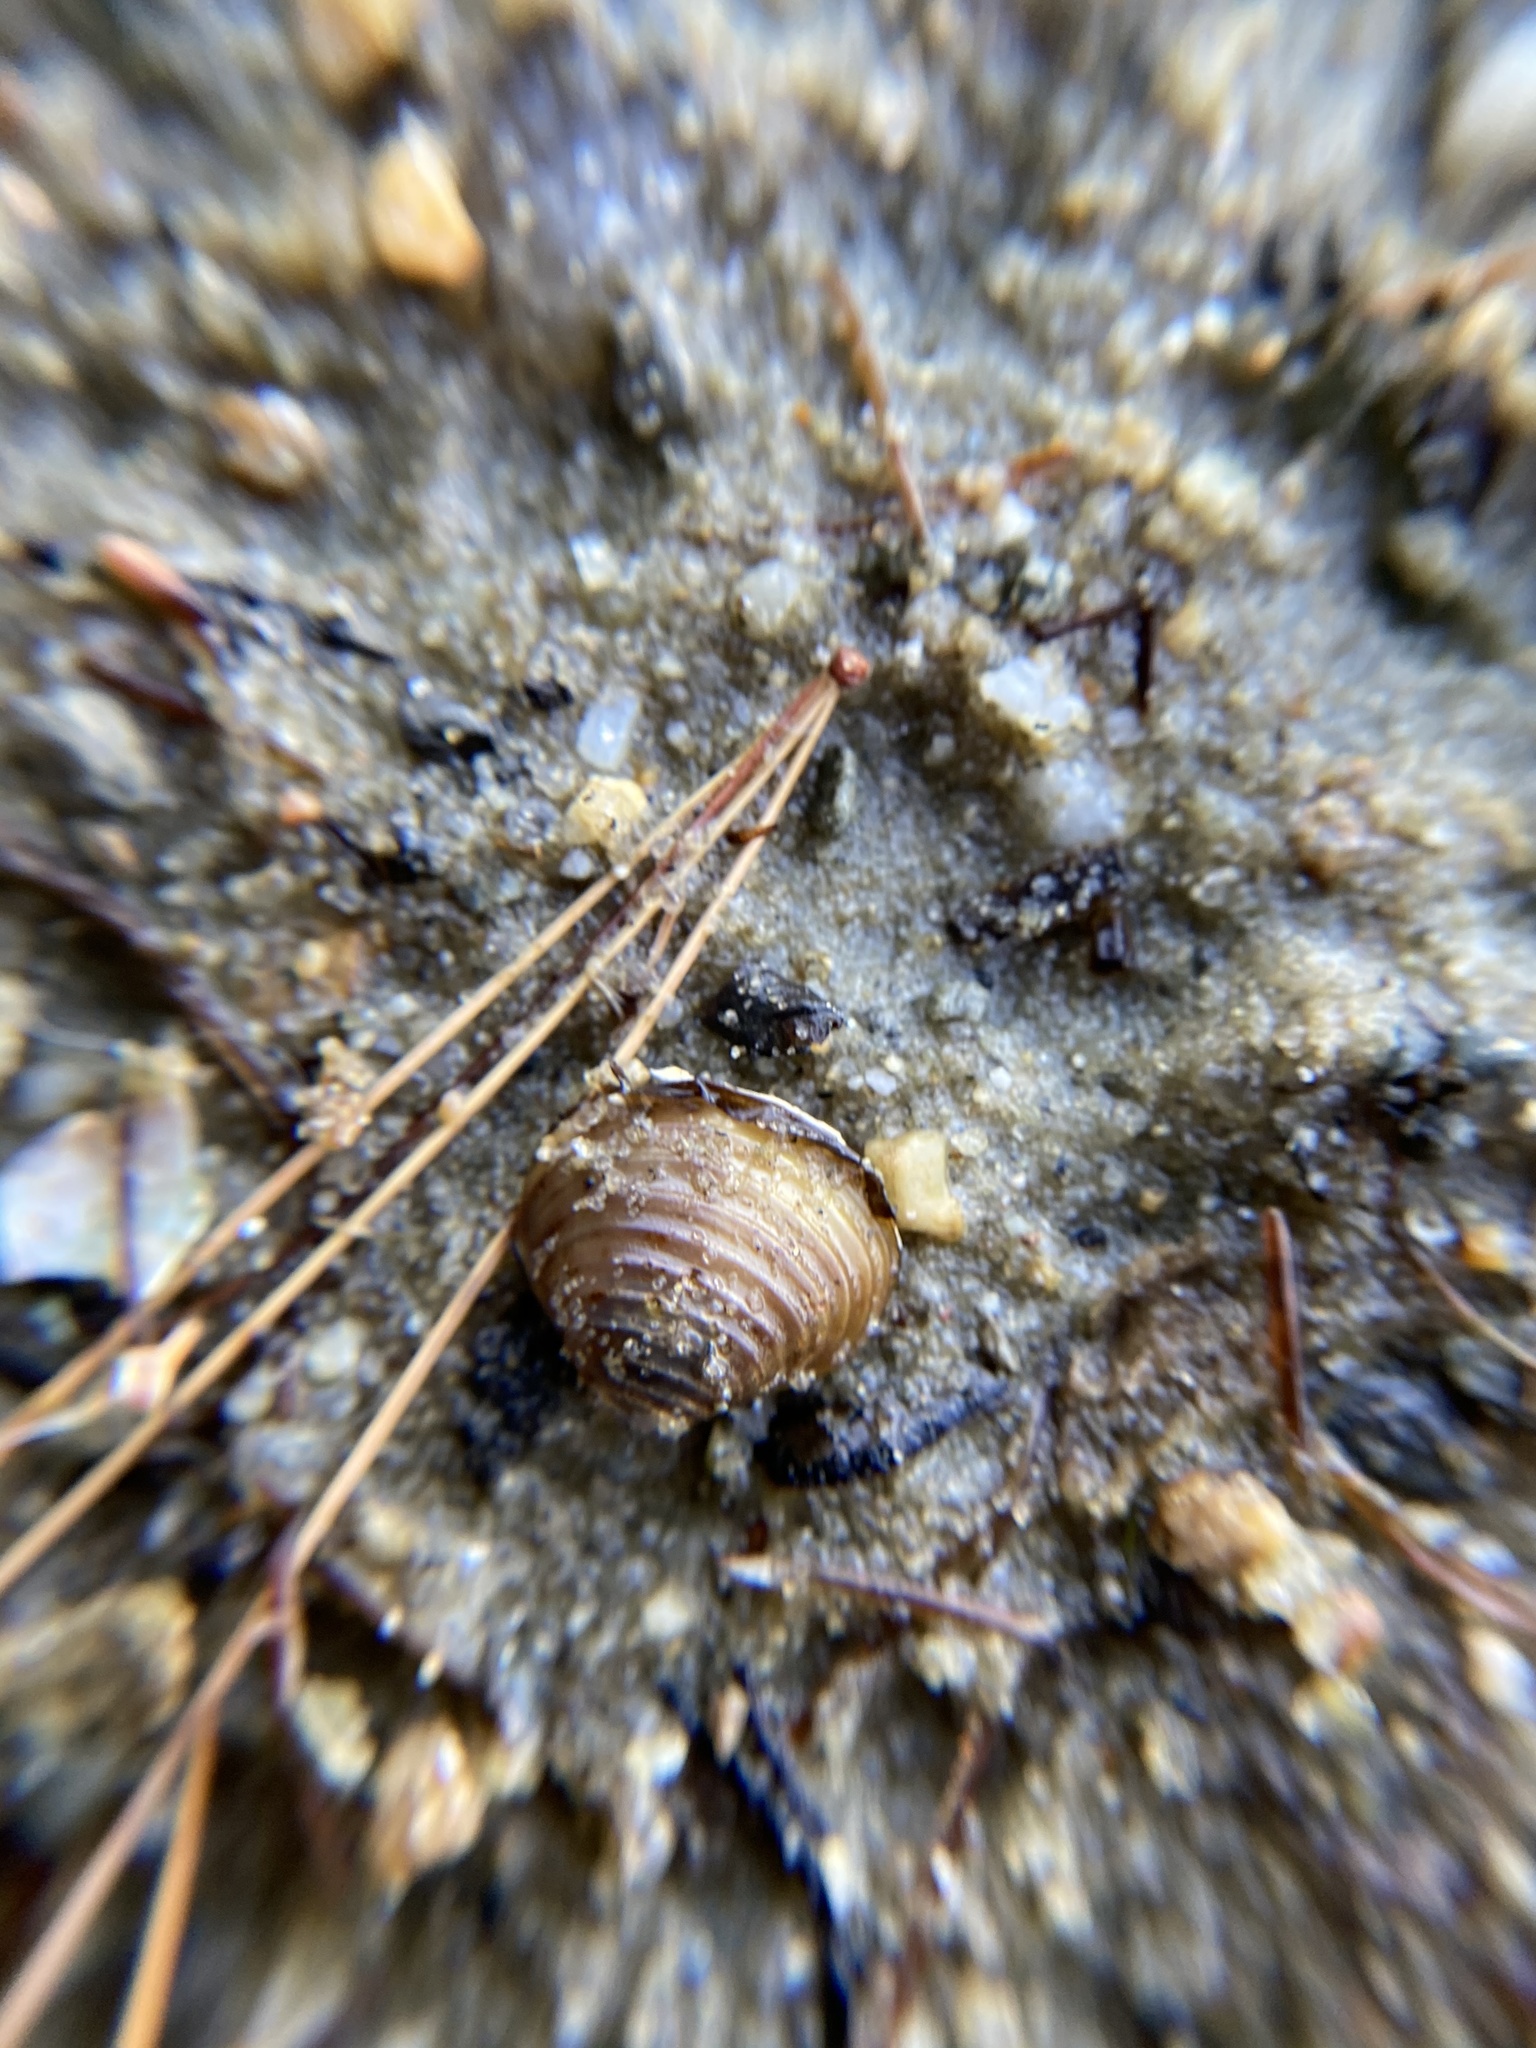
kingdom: Animalia
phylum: Mollusca
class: Bivalvia
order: Venerida
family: Cyrenidae
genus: Corbicula
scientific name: Corbicula fluminea
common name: Asian clam
